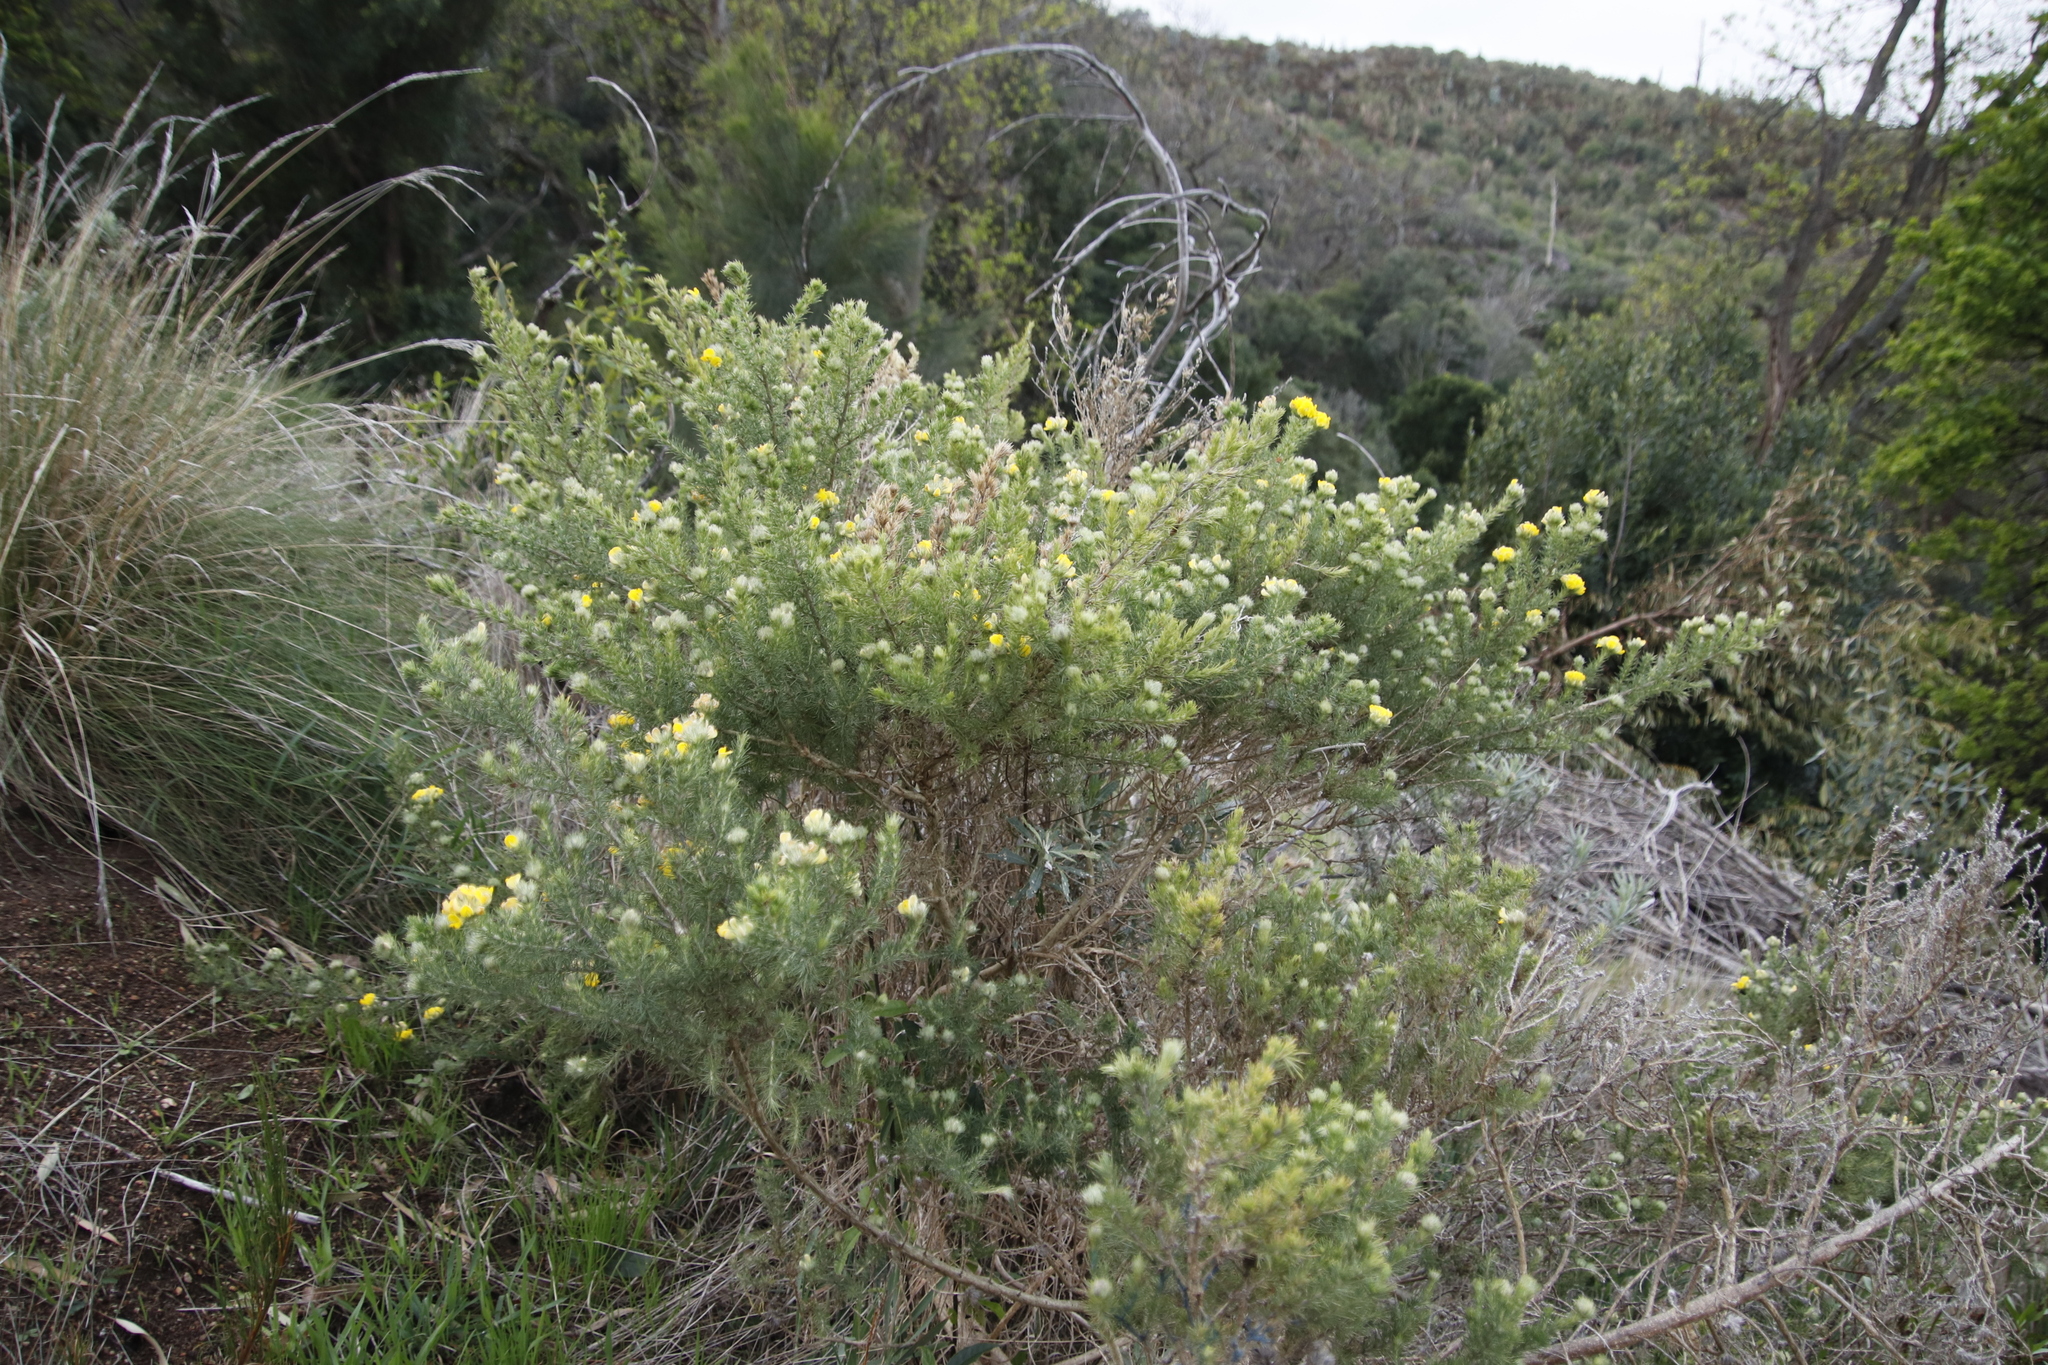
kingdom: Plantae
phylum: Tracheophyta
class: Magnoliopsida
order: Fabales
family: Fabaceae
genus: Aspalathus
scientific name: Aspalathus chenopoda
